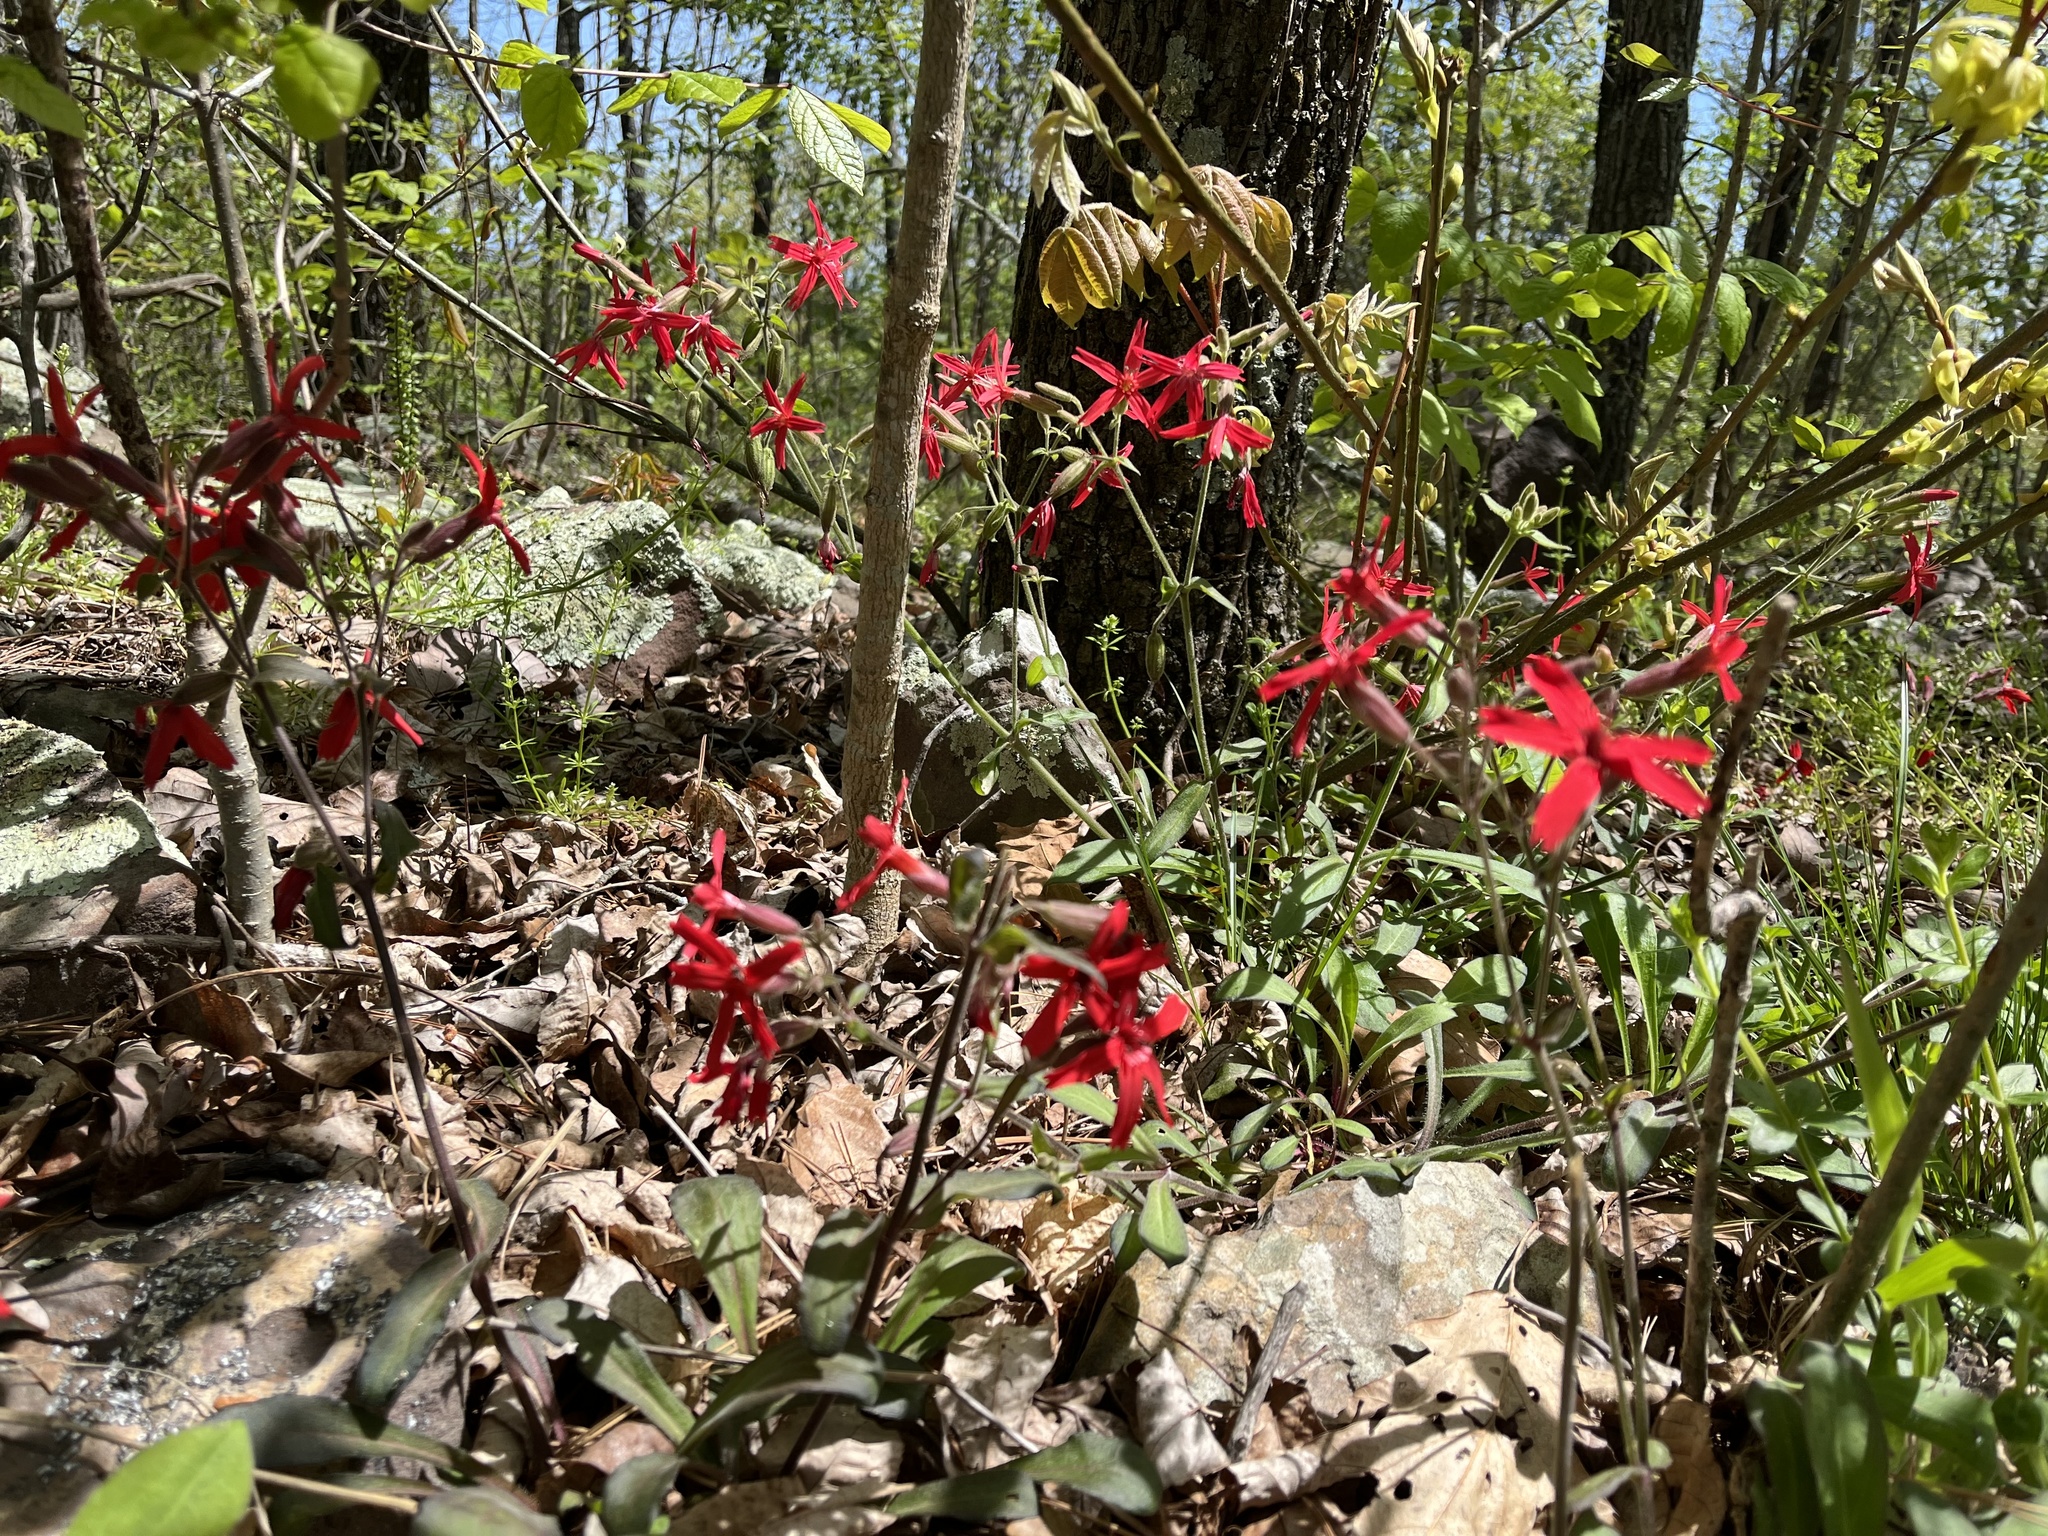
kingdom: Plantae
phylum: Tracheophyta
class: Magnoliopsida
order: Caryophyllales
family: Caryophyllaceae
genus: Silene
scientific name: Silene virginica
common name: Fire-pink
